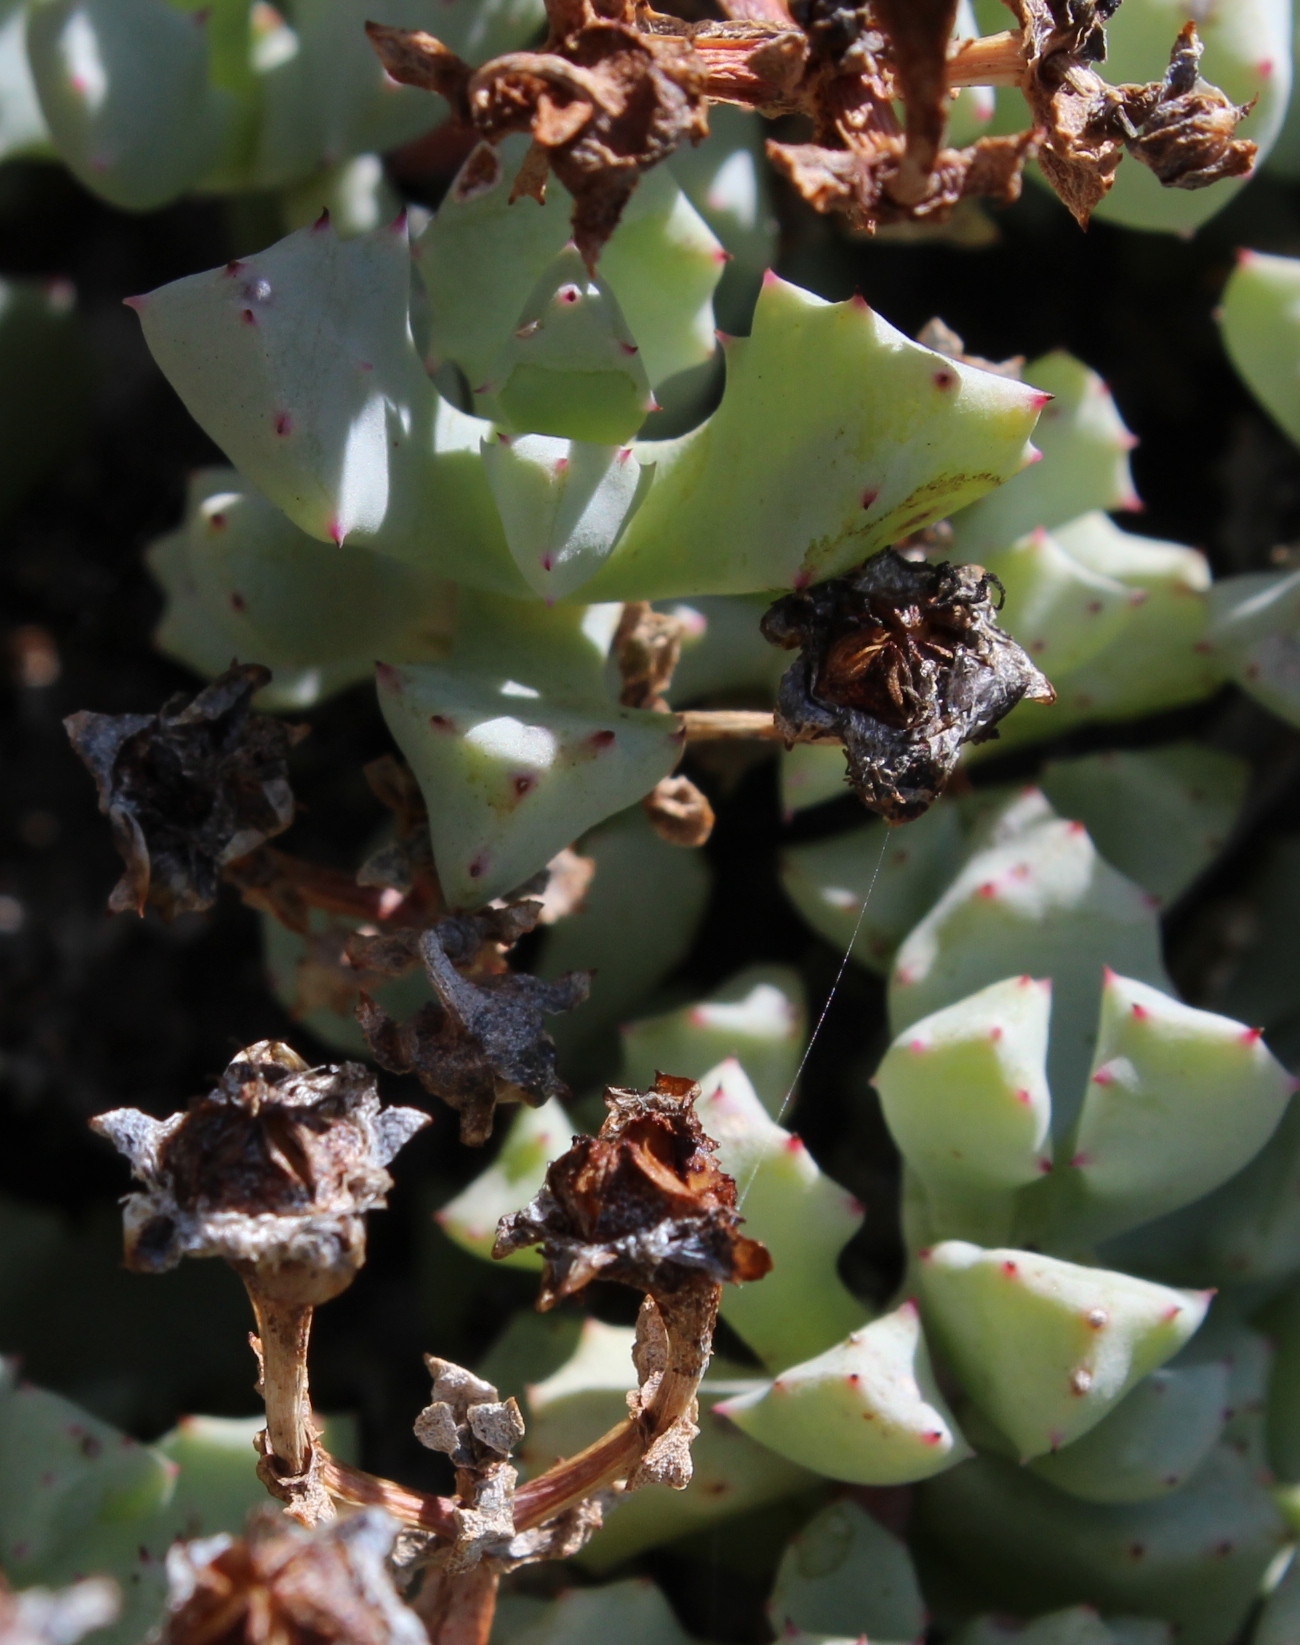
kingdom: Plantae
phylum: Tracheophyta
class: Magnoliopsida
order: Caryophyllales
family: Aizoaceae
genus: Oscularia
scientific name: Oscularia deltoides
